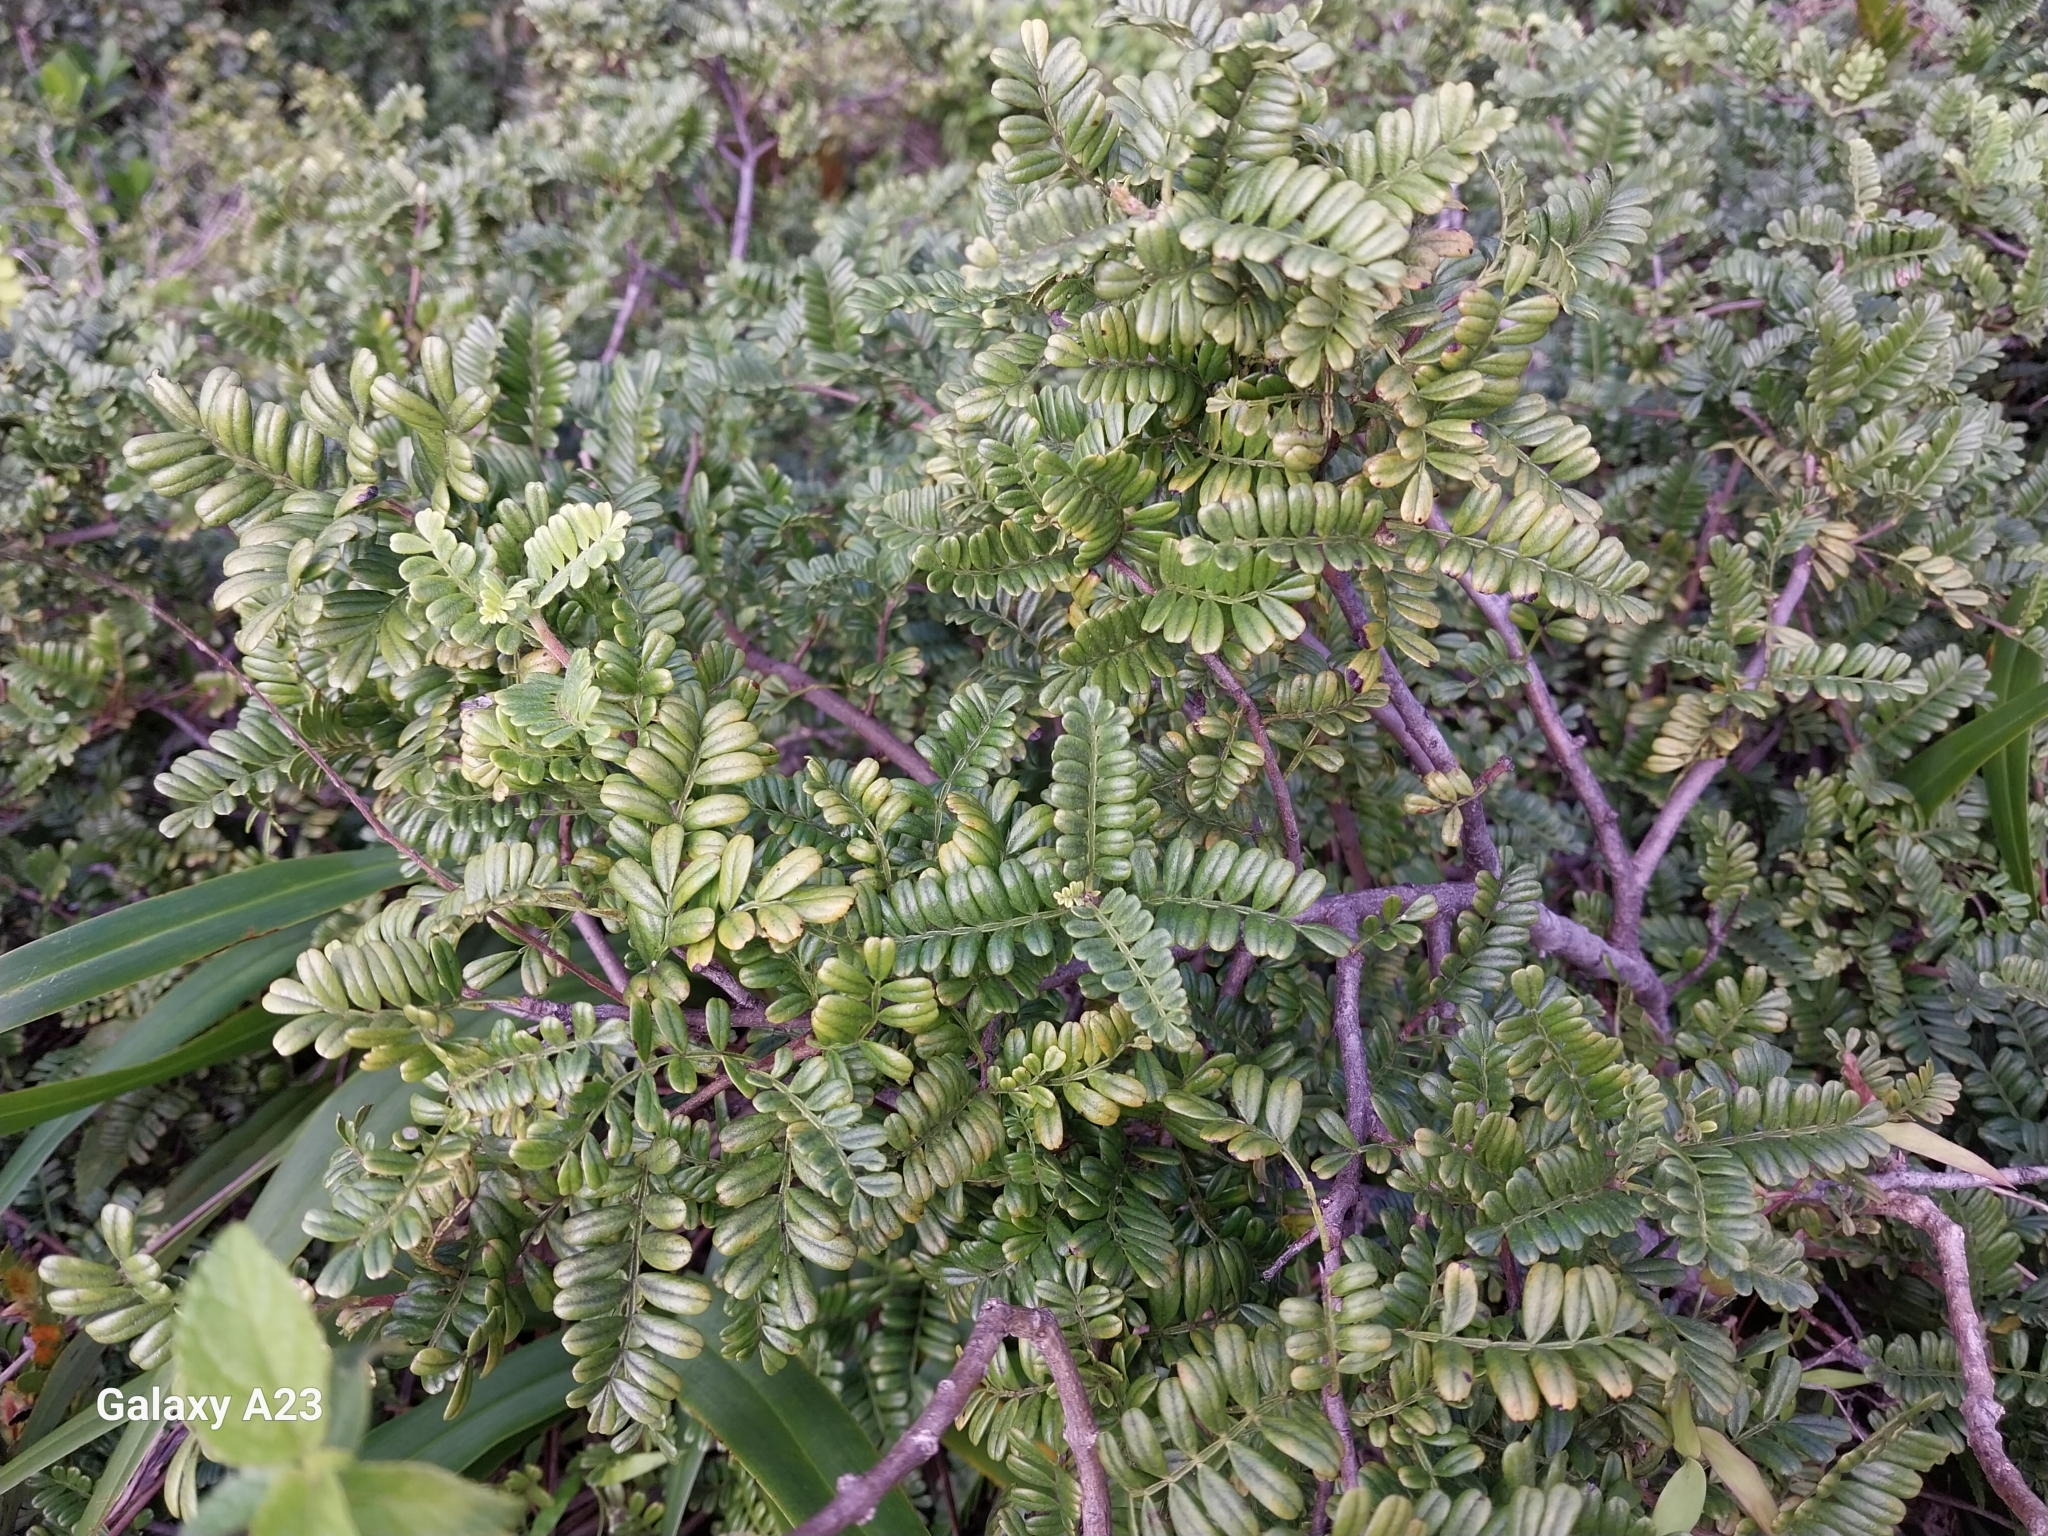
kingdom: Plantae
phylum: Tracheophyta
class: Magnoliopsida
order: Rosales
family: Rosaceae
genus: Osteomeles
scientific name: Osteomeles anthyllidifolia
